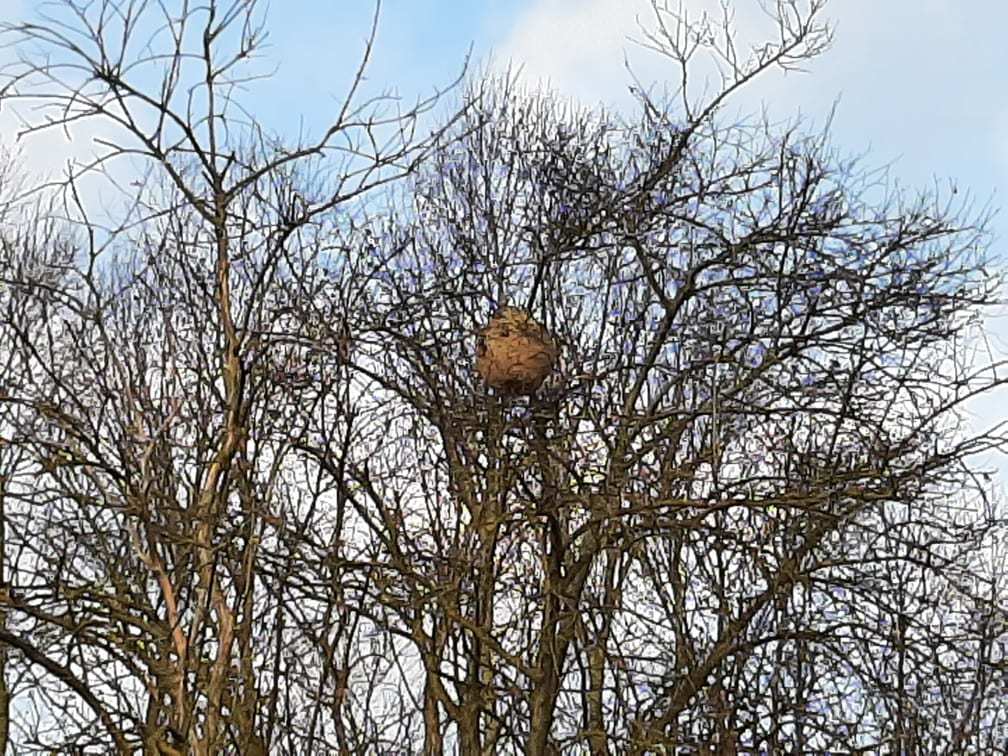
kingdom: Animalia
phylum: Arthropoda
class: Insecta
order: Hymenoptera
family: Vespidae
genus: Vespa
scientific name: Vespa velutina
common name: Asian hornet
